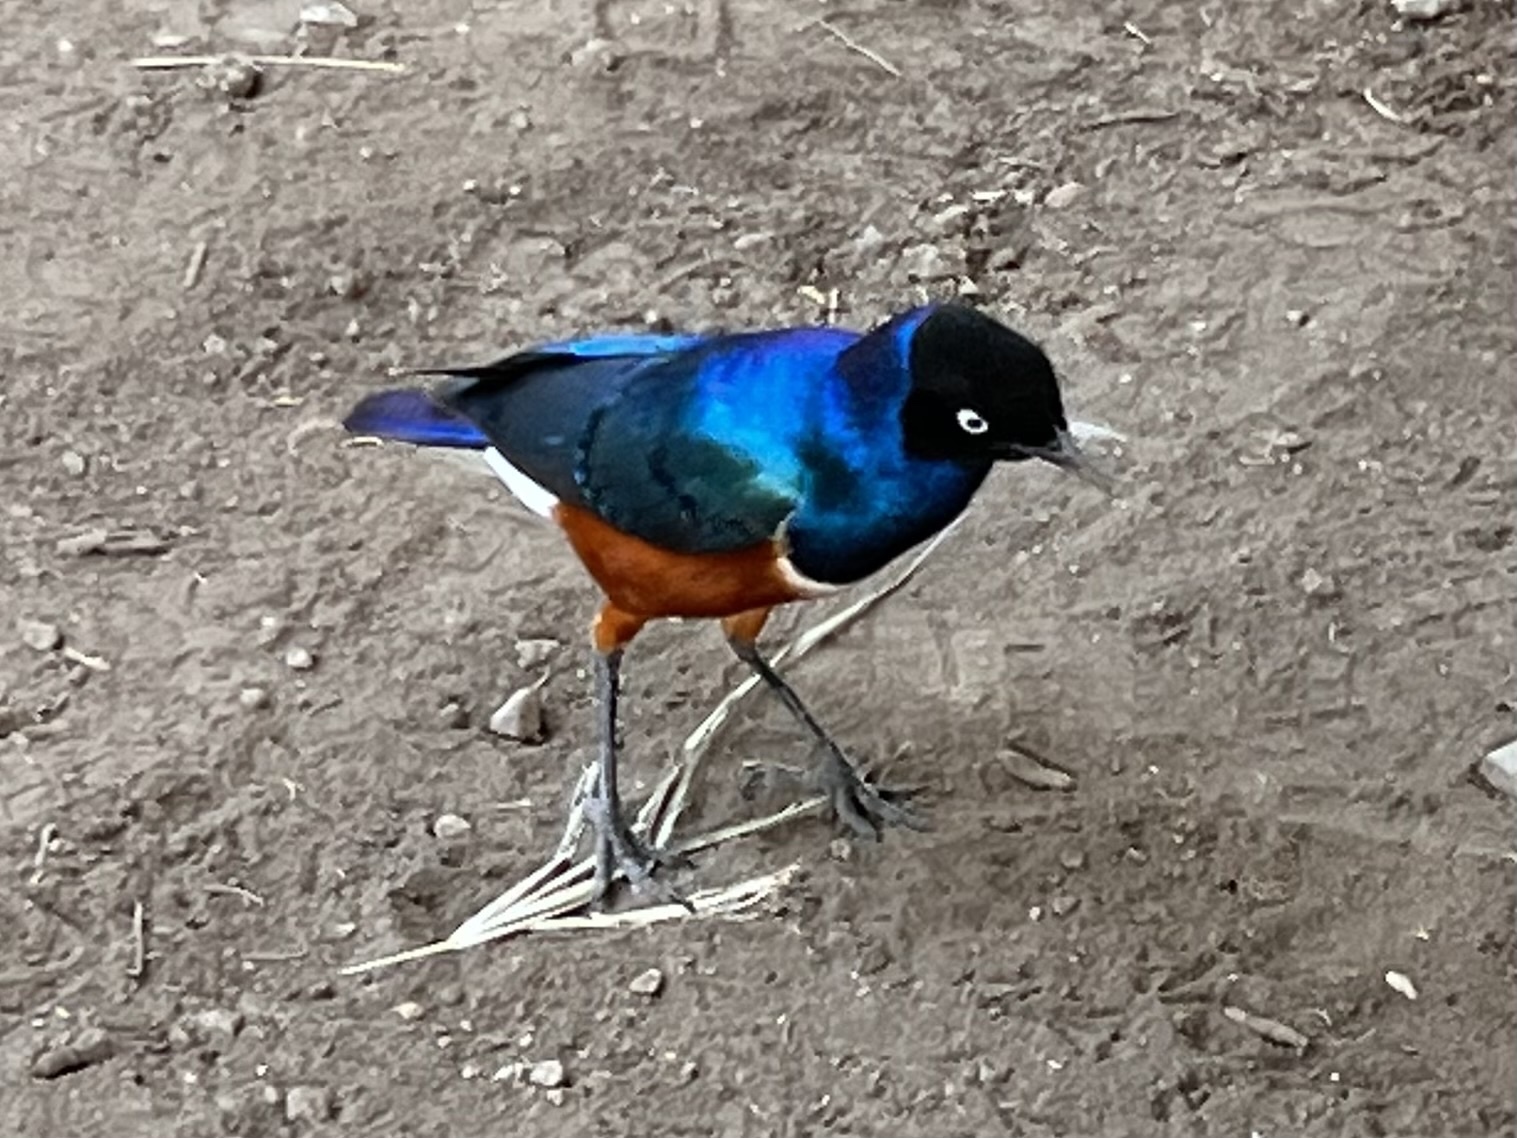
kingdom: Animalia
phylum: Chordata
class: Aves
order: Passeriformes
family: Sturnidae
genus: Lamprotornis
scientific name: Lamprotornis superbus
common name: Superb starling
